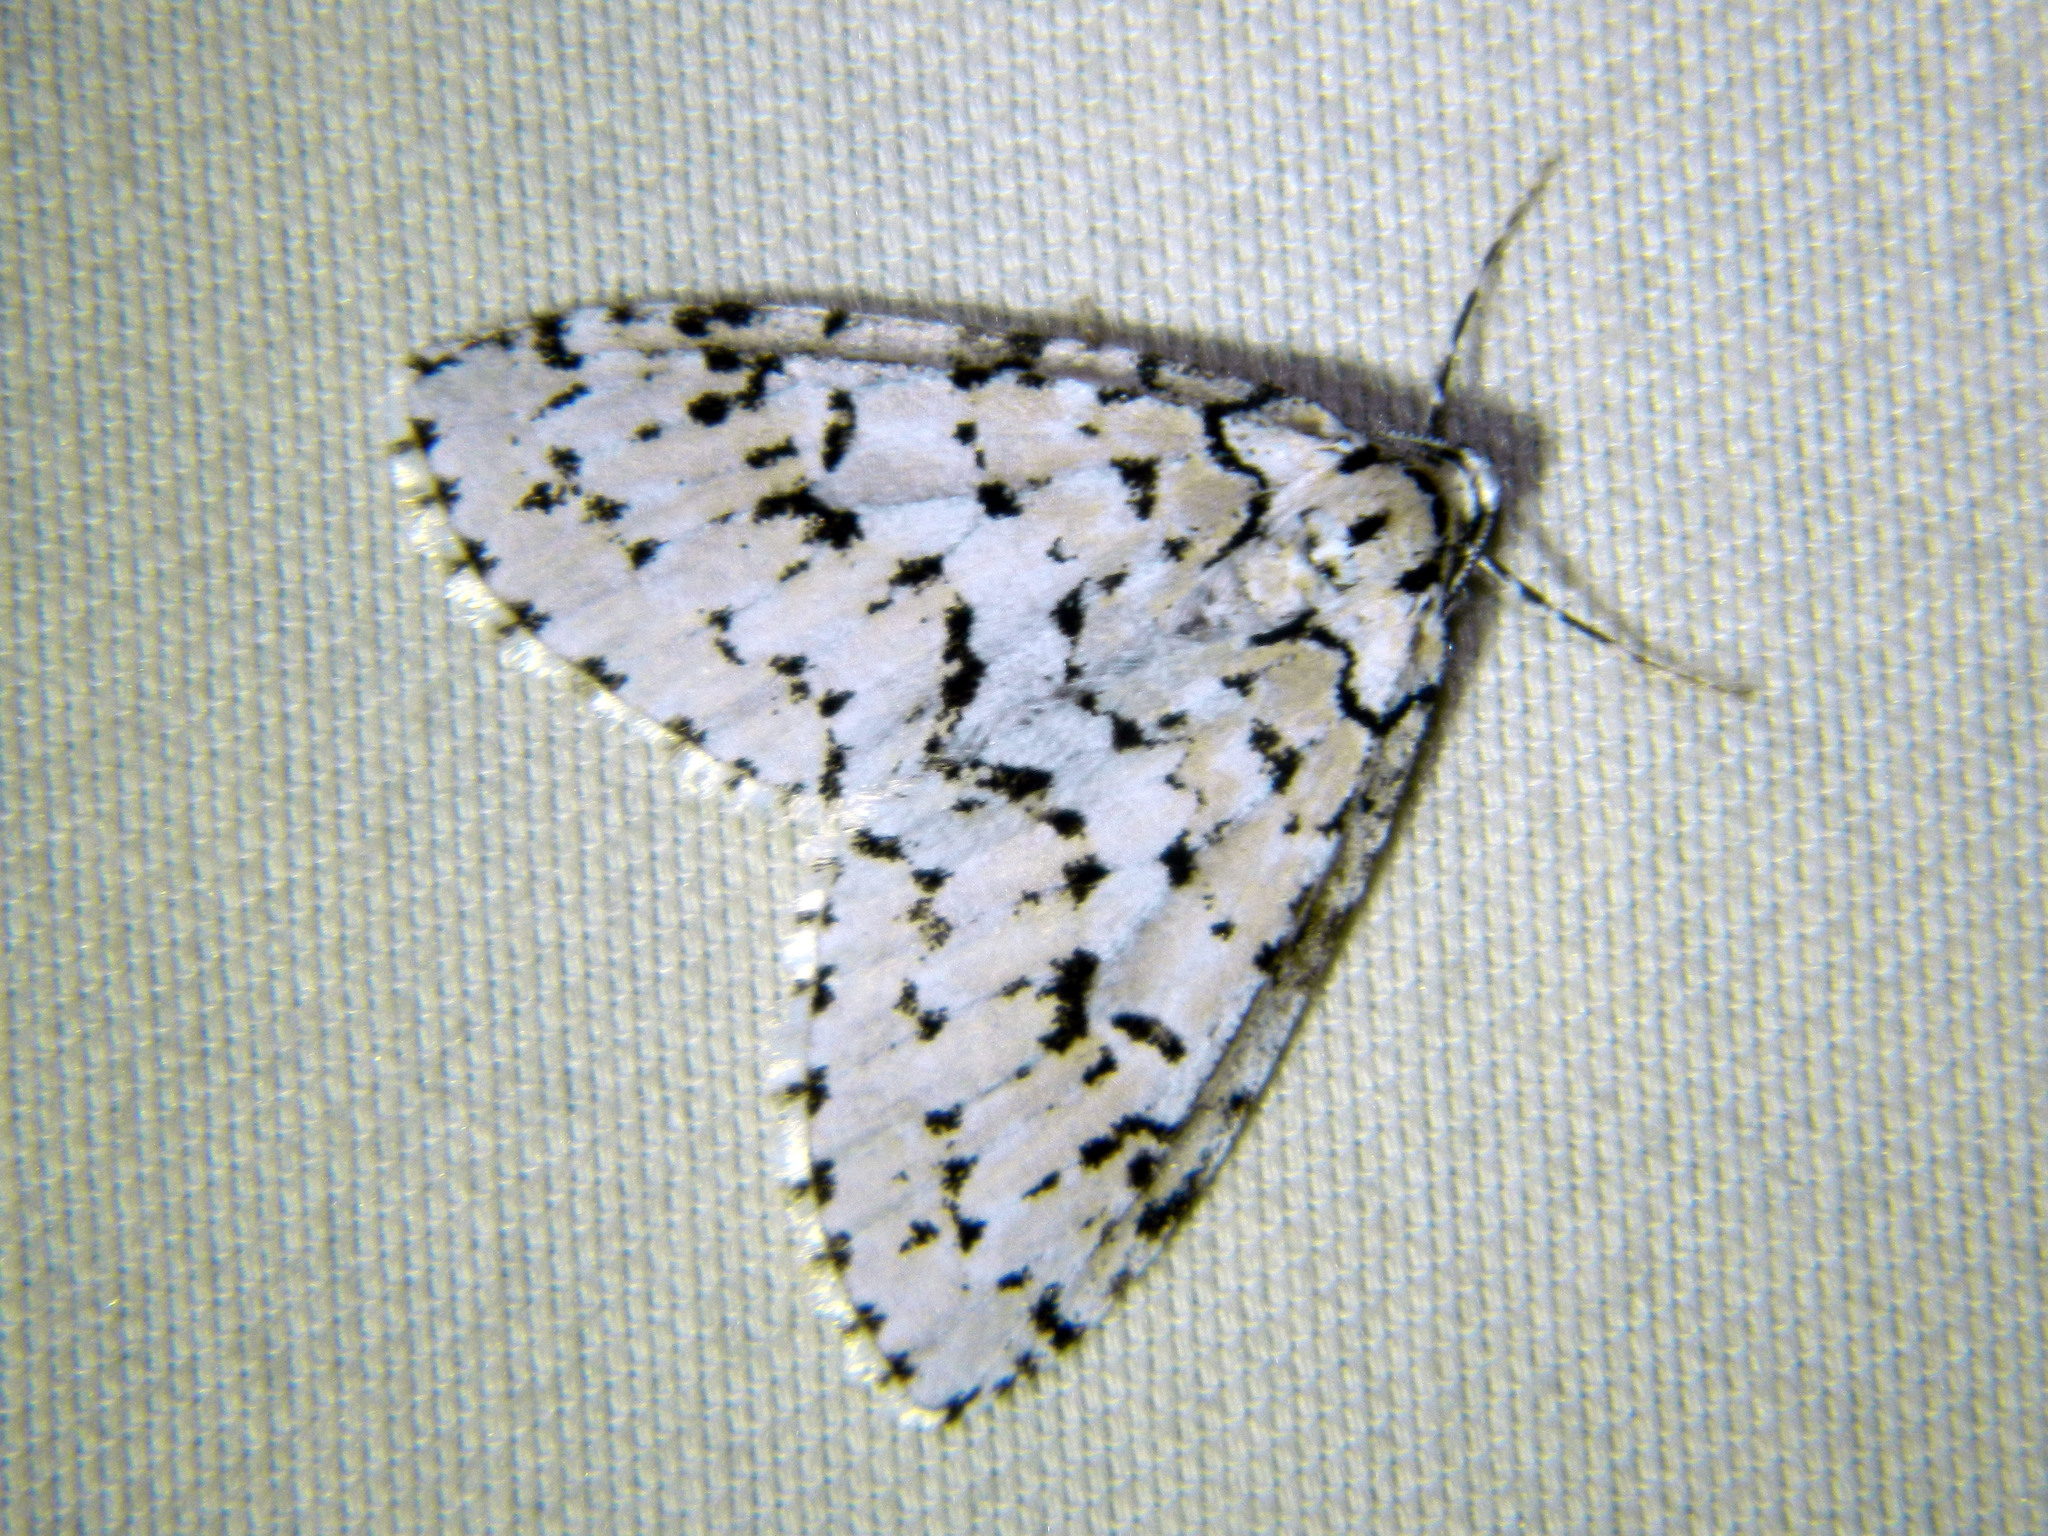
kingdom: Animalia
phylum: Arthropoda
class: Insecta
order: Lepidoptera
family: Geometridae
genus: Cladara
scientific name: Cladara atroliturata
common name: Scribbler
